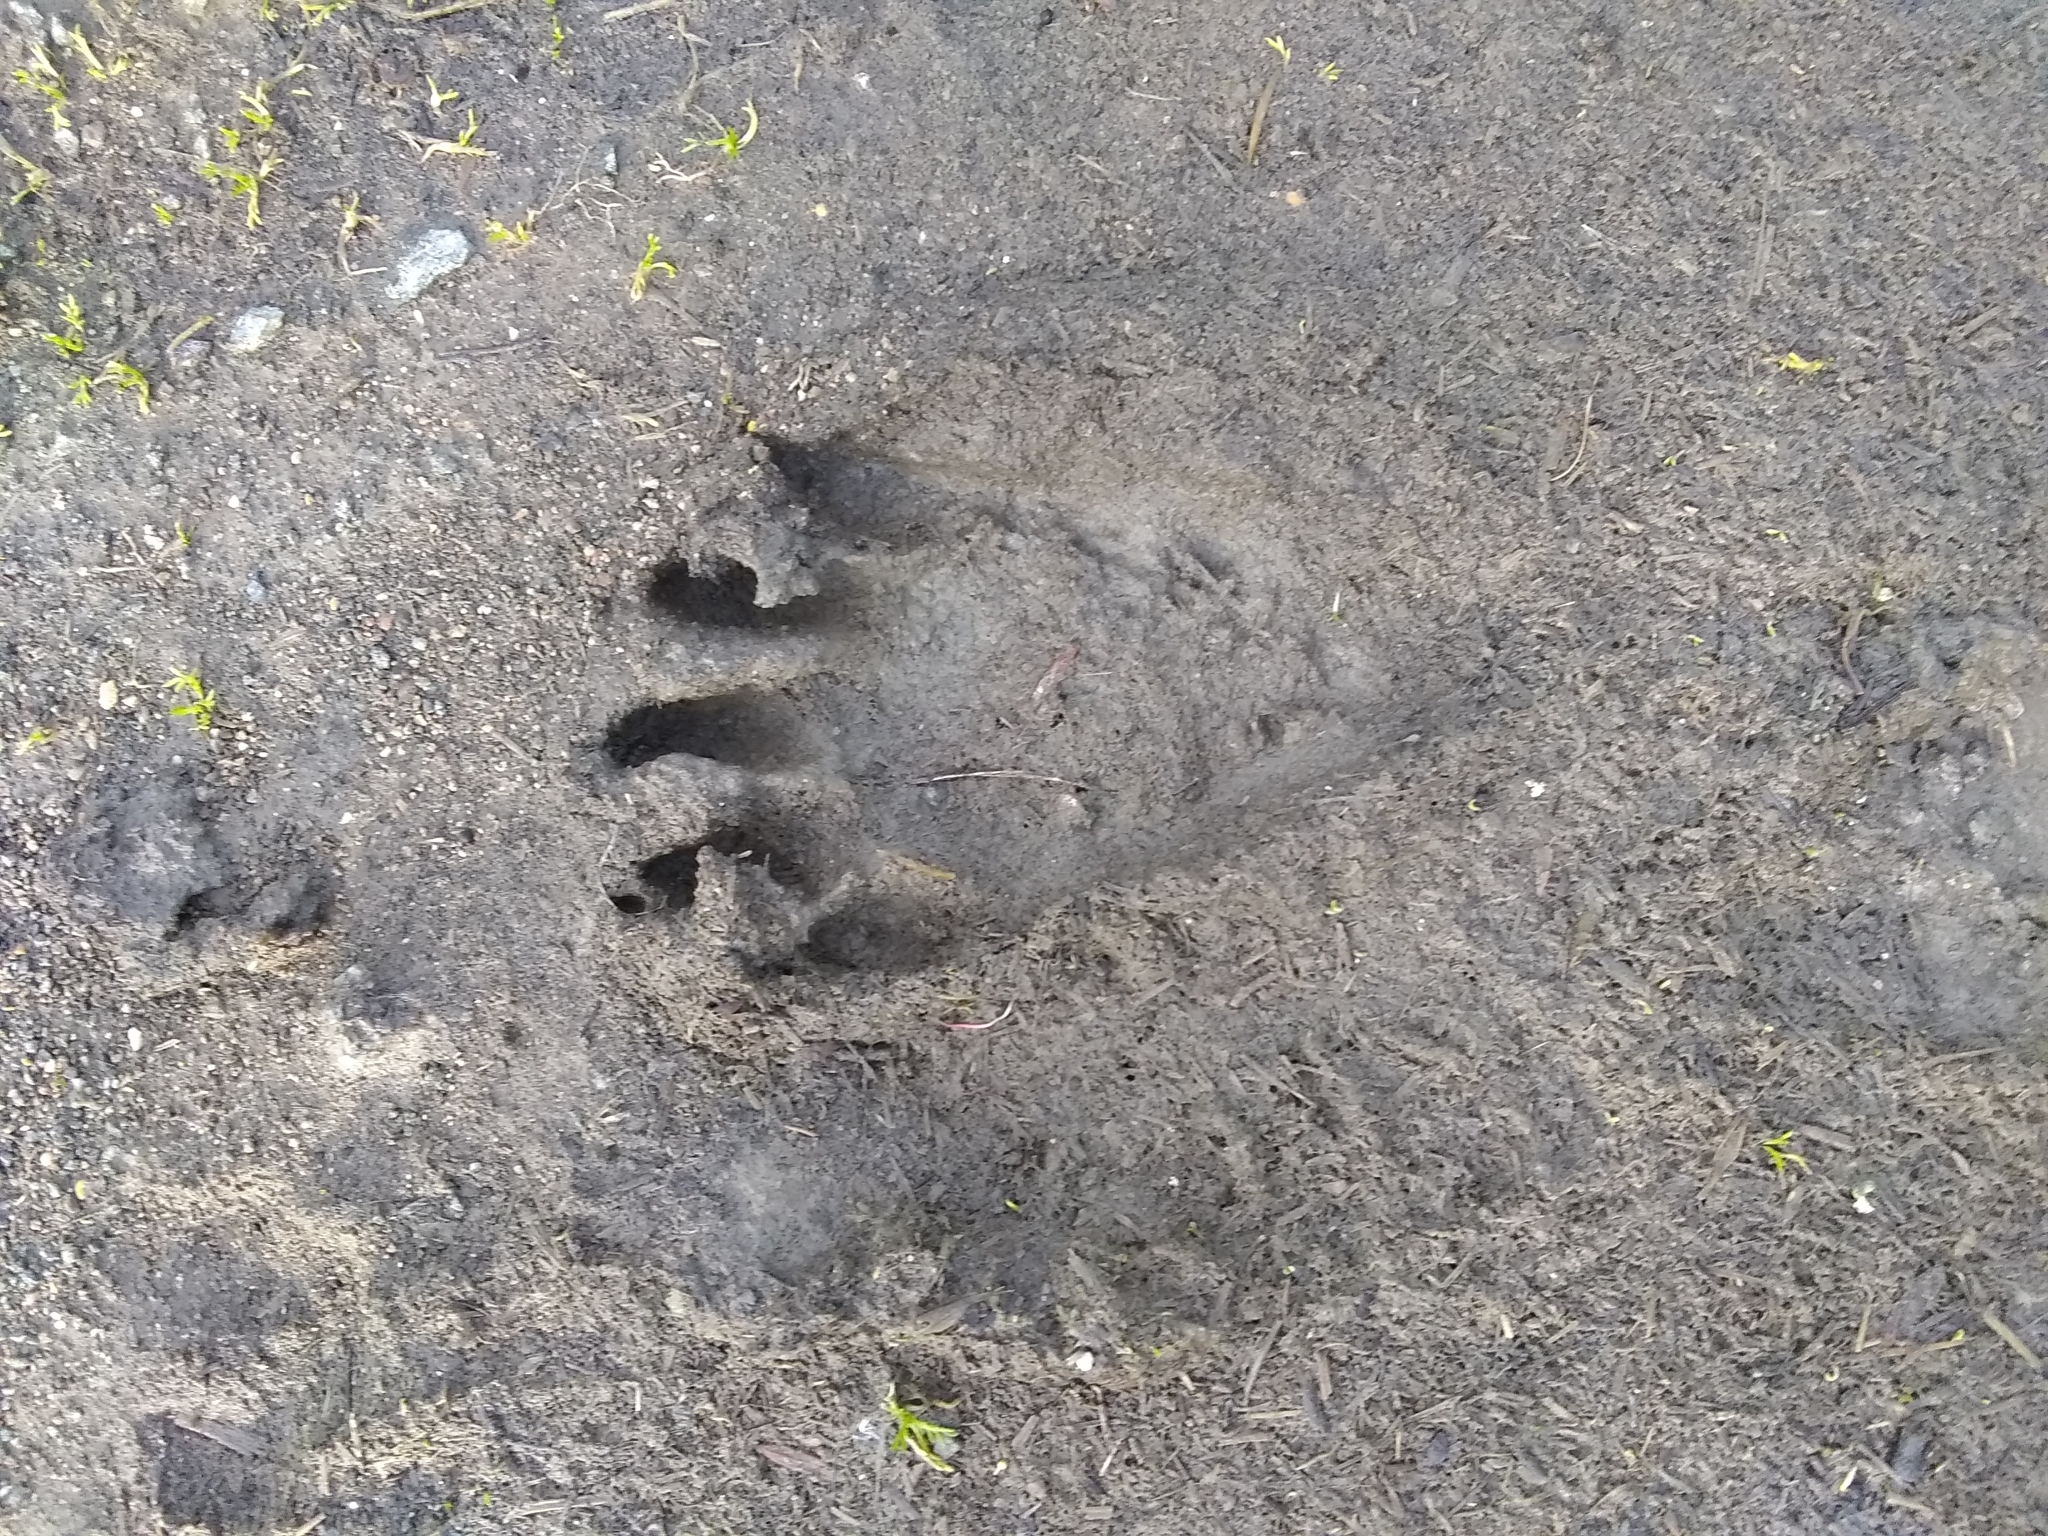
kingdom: Animalia
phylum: Chordata
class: Mammalia
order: Carnivora
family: Procyonidae
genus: Procyon
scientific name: Procyon lotor
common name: Raccoon
